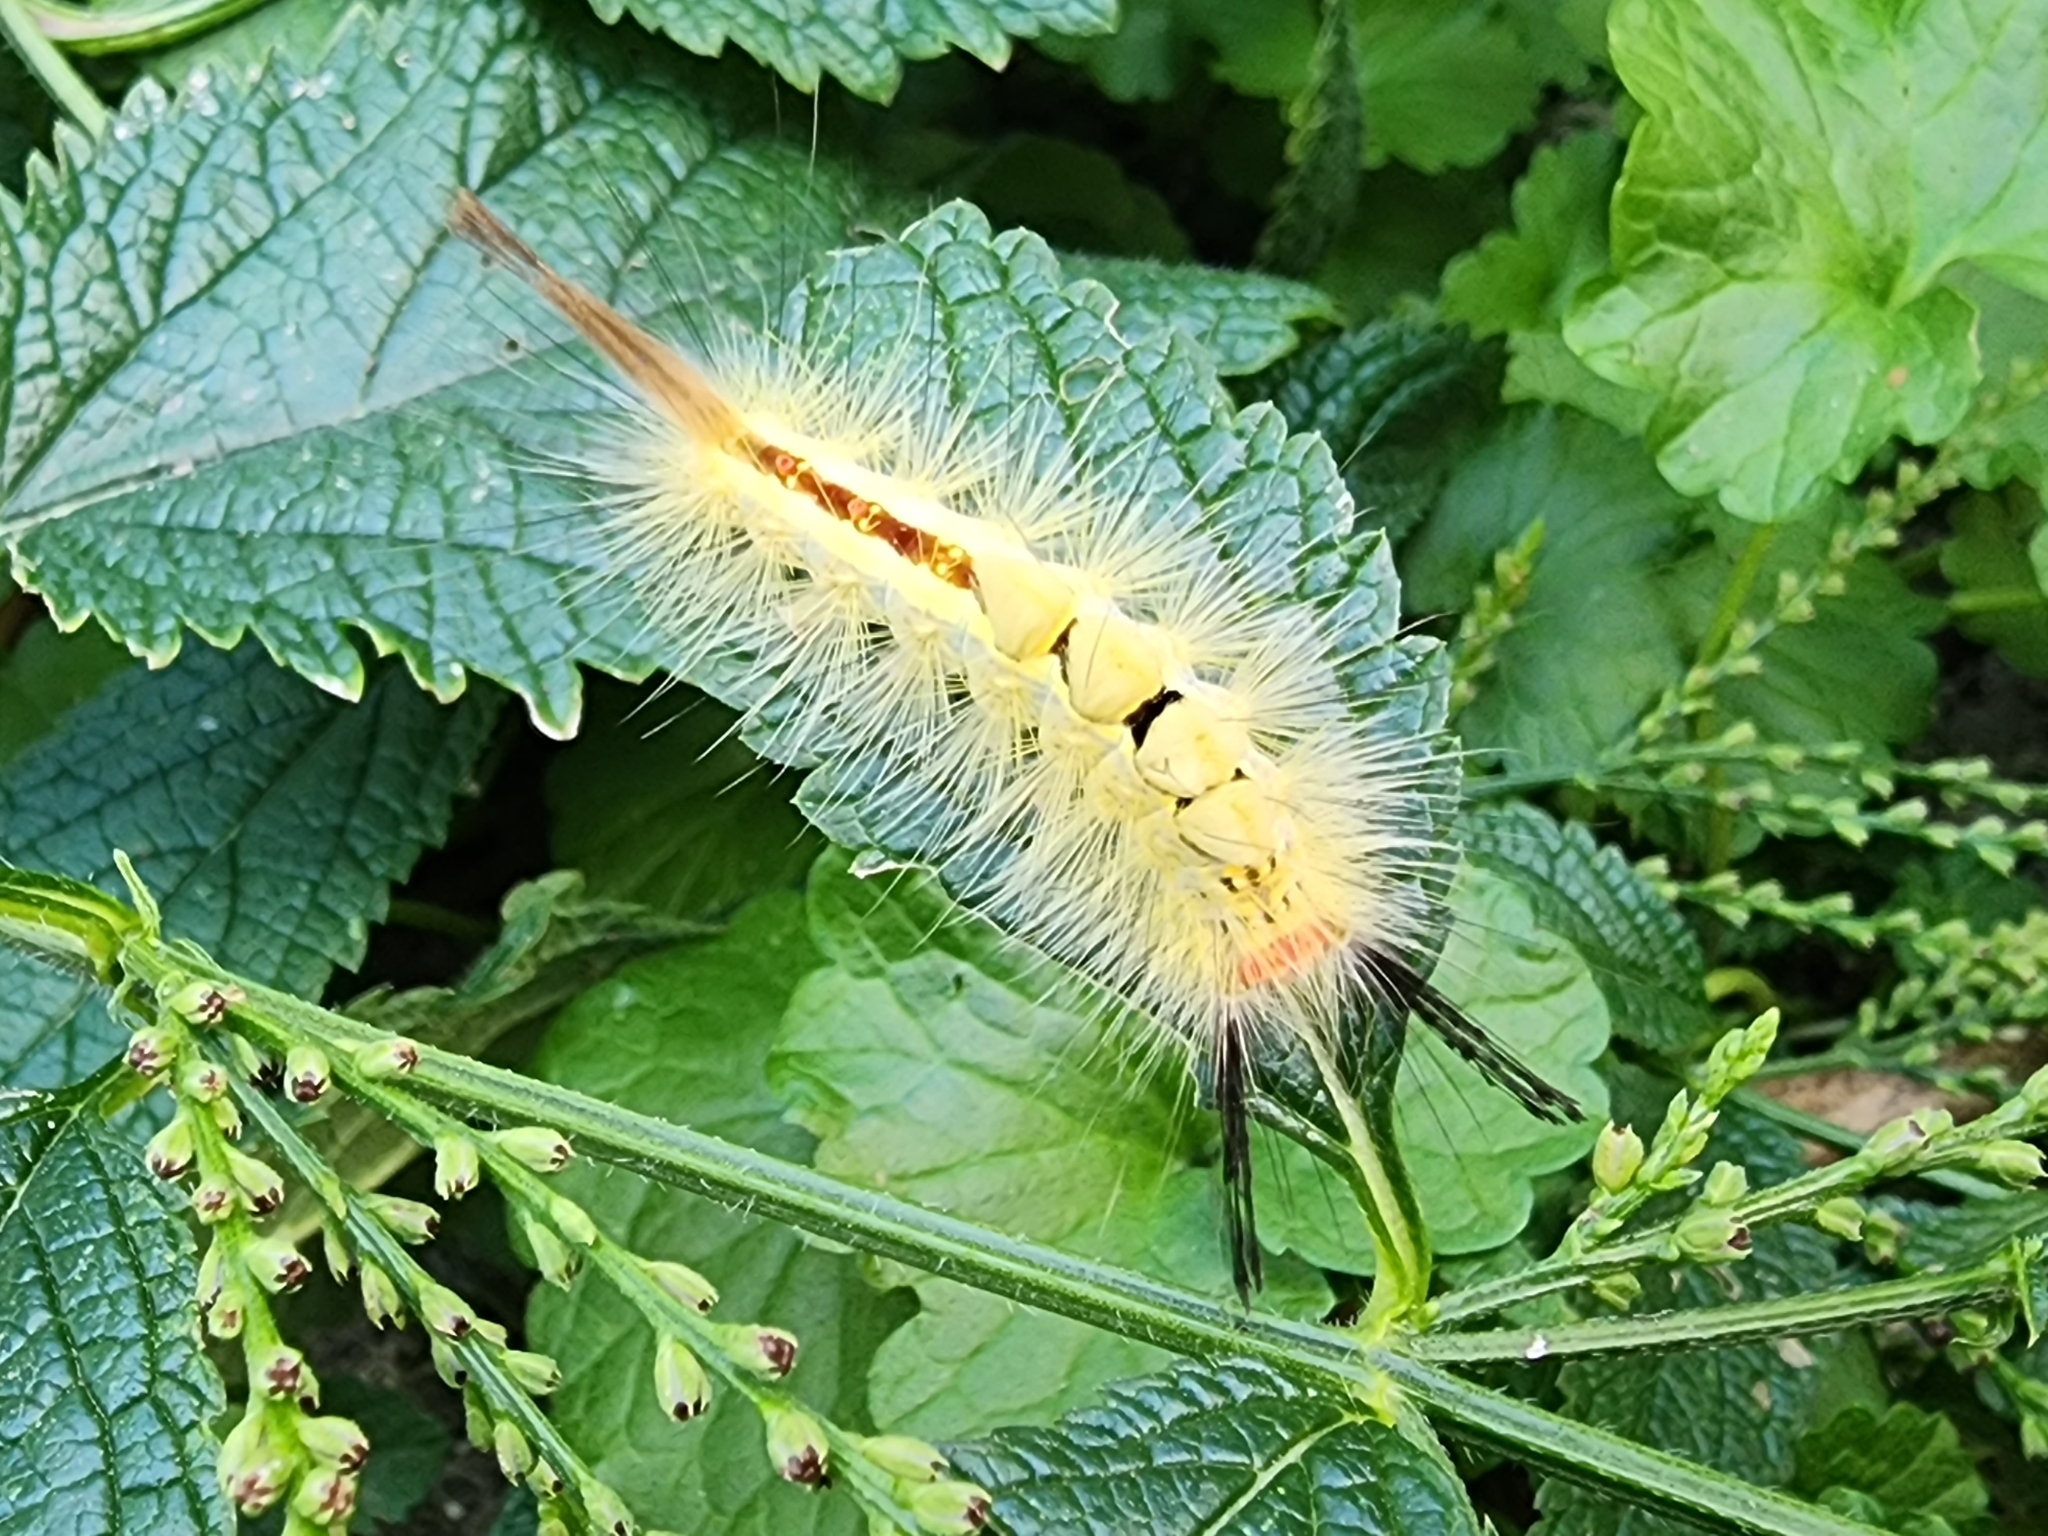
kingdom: Animalia
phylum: Arthropoda
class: Insecta
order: Lepidoptera
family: Erebidae
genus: Orgyia
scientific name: Orgyia leucostigma
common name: White-marked tussock moth
